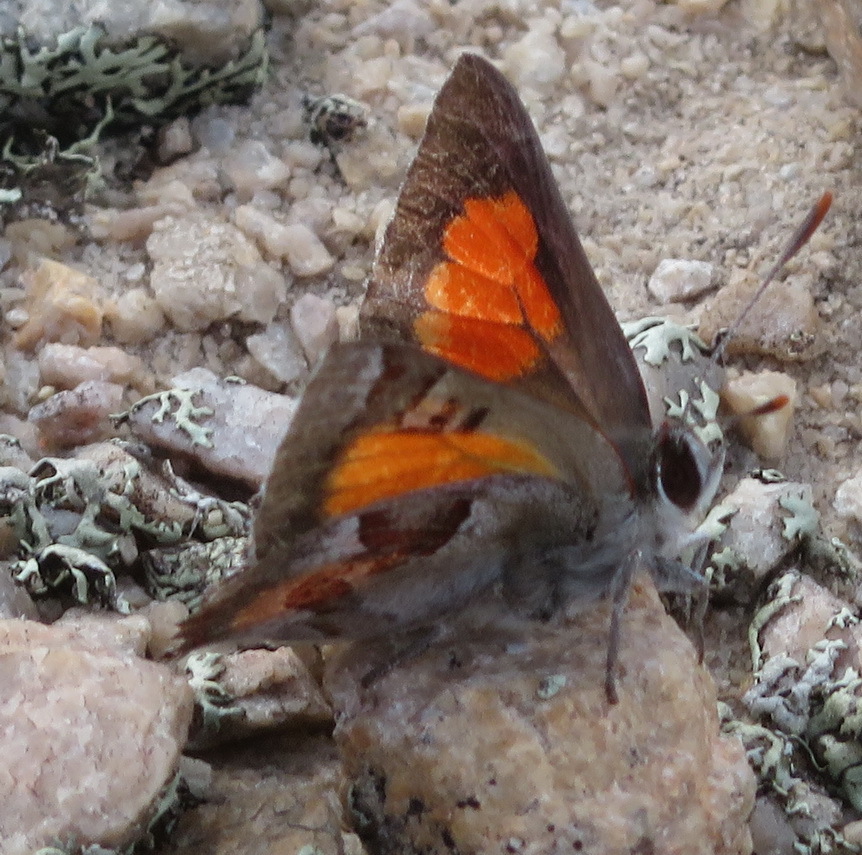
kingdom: Animalia
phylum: Arthropoda
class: Insecta
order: Lepidoptera
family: Lycaenidae
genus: Capys
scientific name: Capys alpheus
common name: Orange-banded protea butterfly
